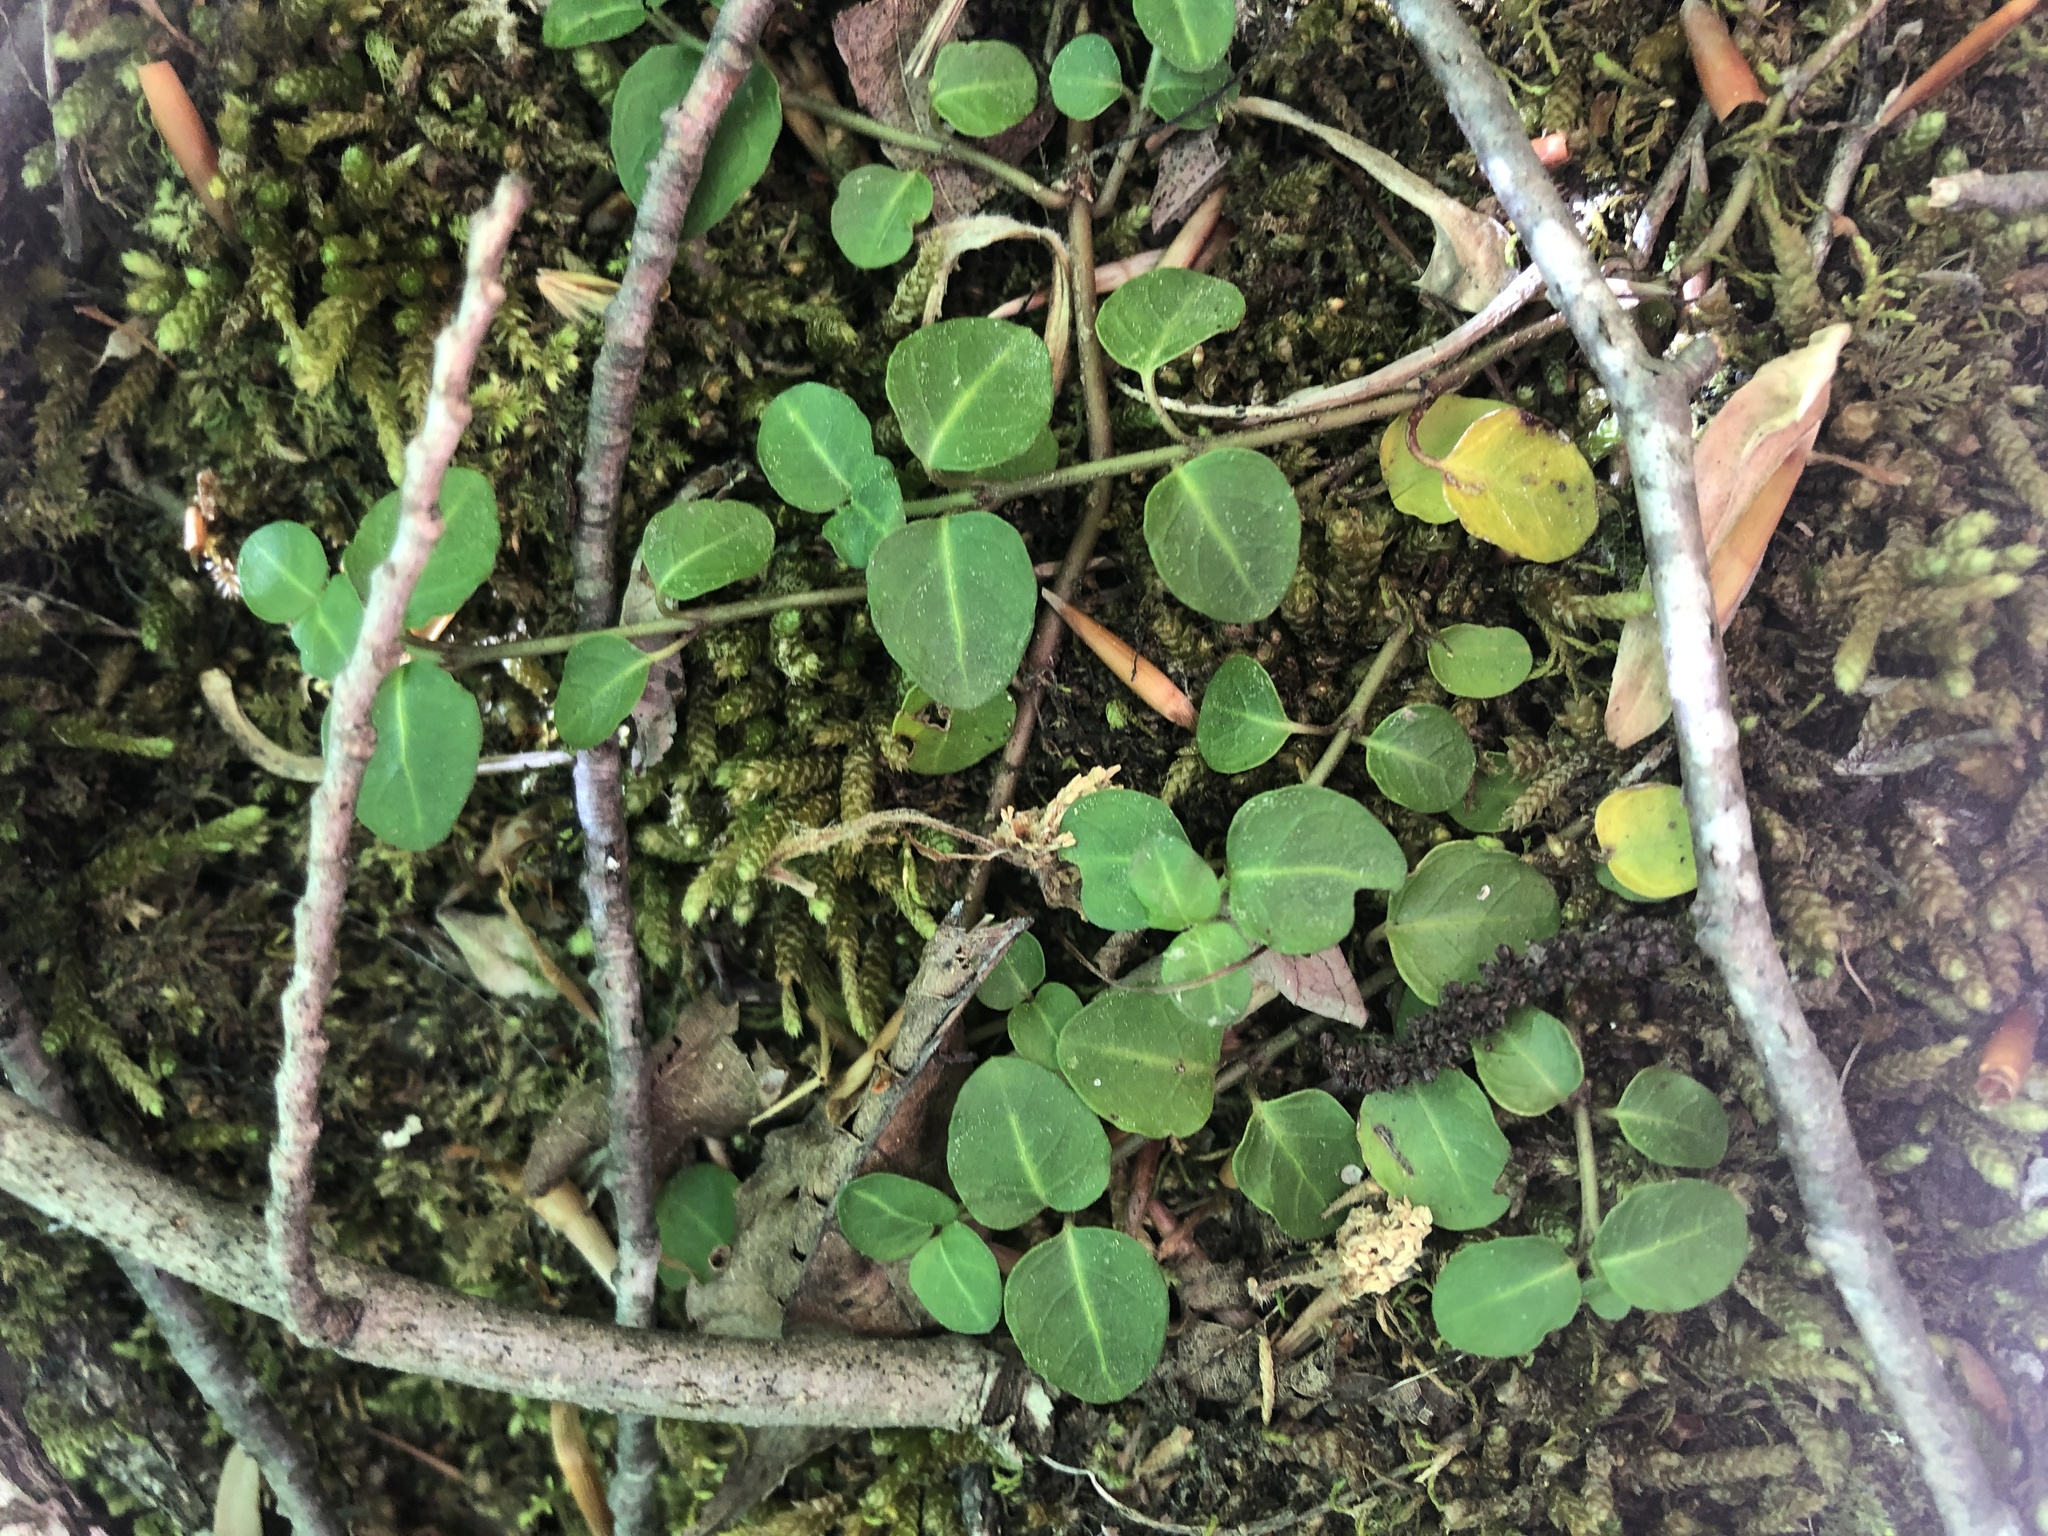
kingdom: Plantae
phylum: Tracheophyta
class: Magnoliopsida
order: Gentianales
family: Rubiaceae
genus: Mitchella
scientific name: Mitchella repens
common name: Partridge-berry
